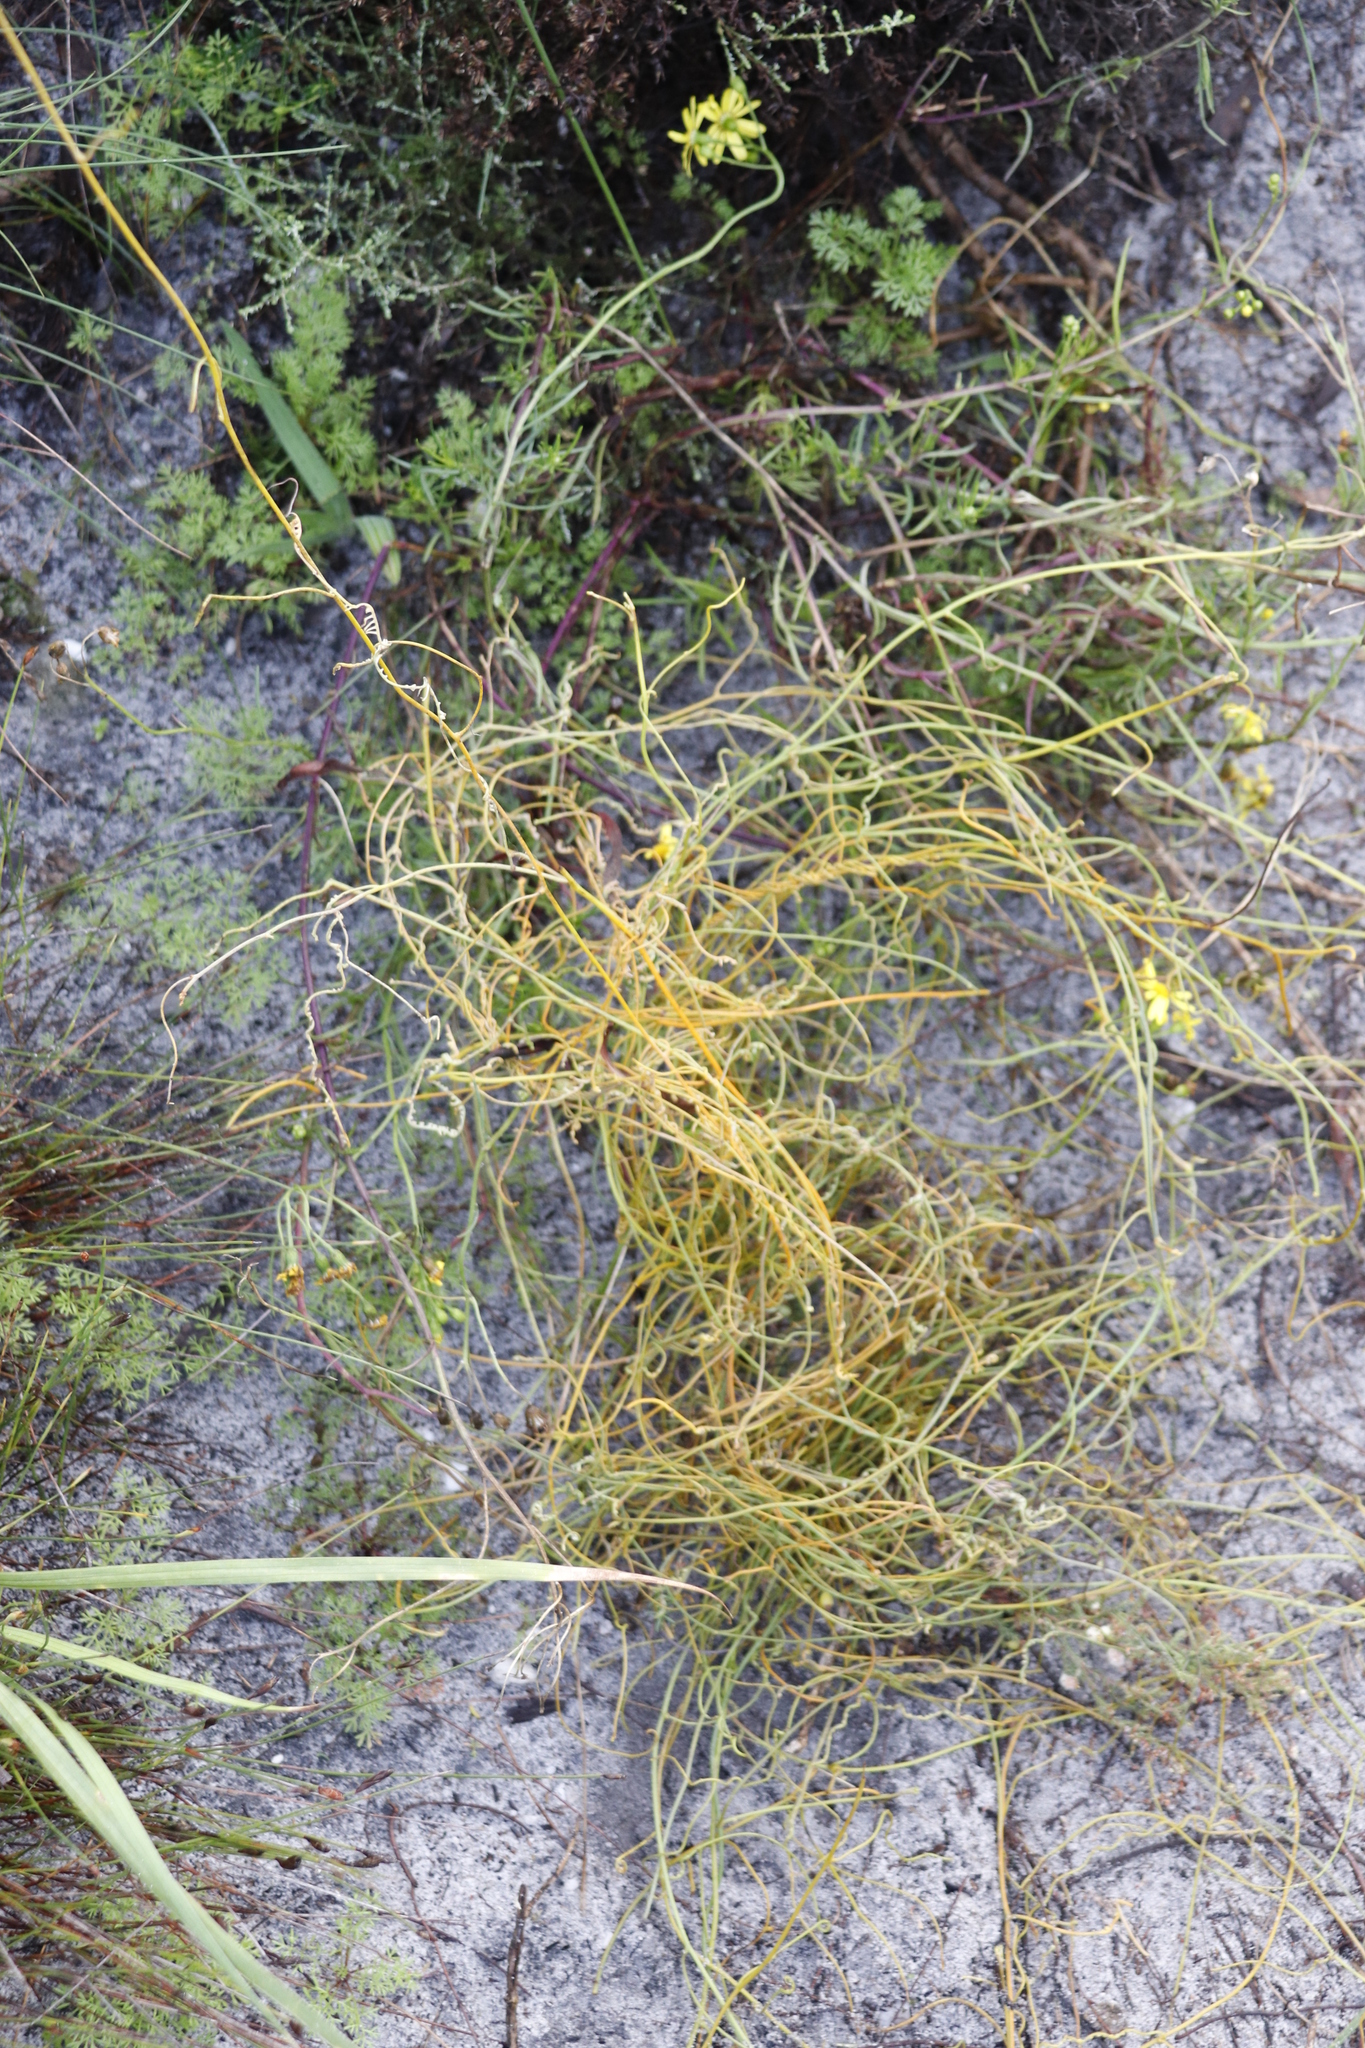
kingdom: Plantae
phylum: Tracheophyta
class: Magnoliopsida
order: Laurales
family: Lauraceae
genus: Cassytha
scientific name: Cassytha ciliolata
